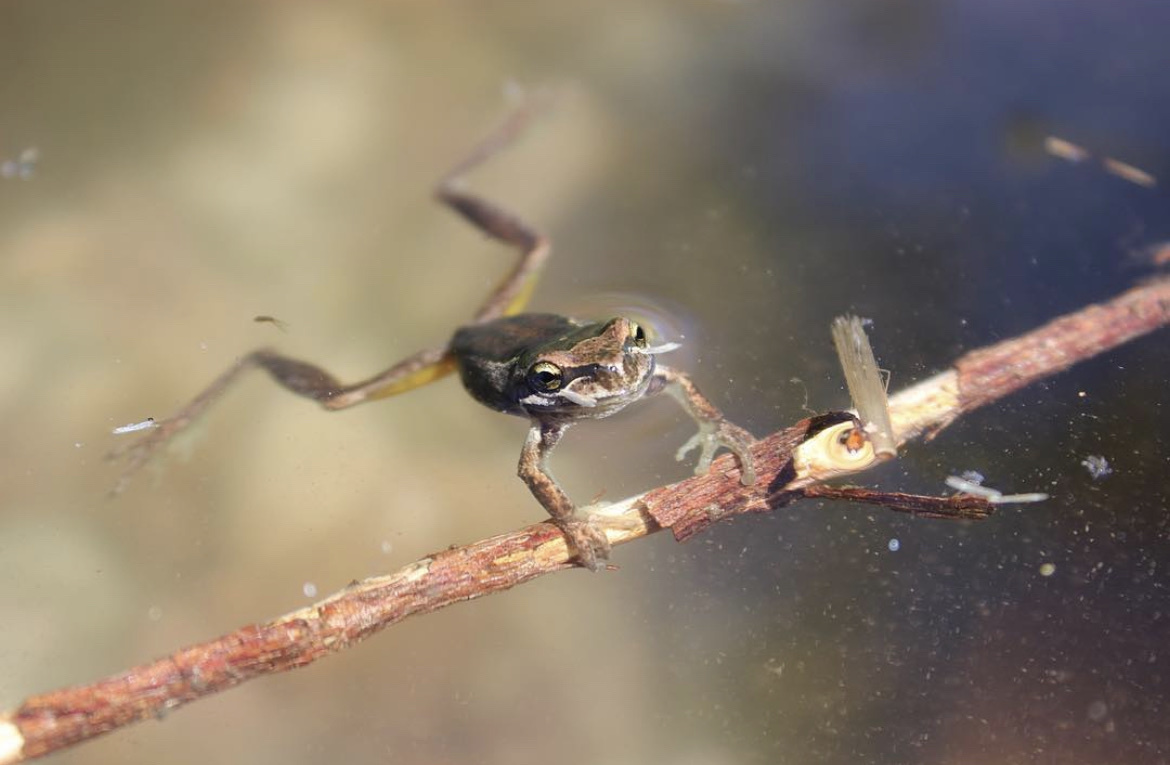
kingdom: Animalia
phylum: Chordata
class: Amphibia
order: Anura
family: Pelodryadidae
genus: Litoria
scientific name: Litoria ewingii
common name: Southern brown tree frog
